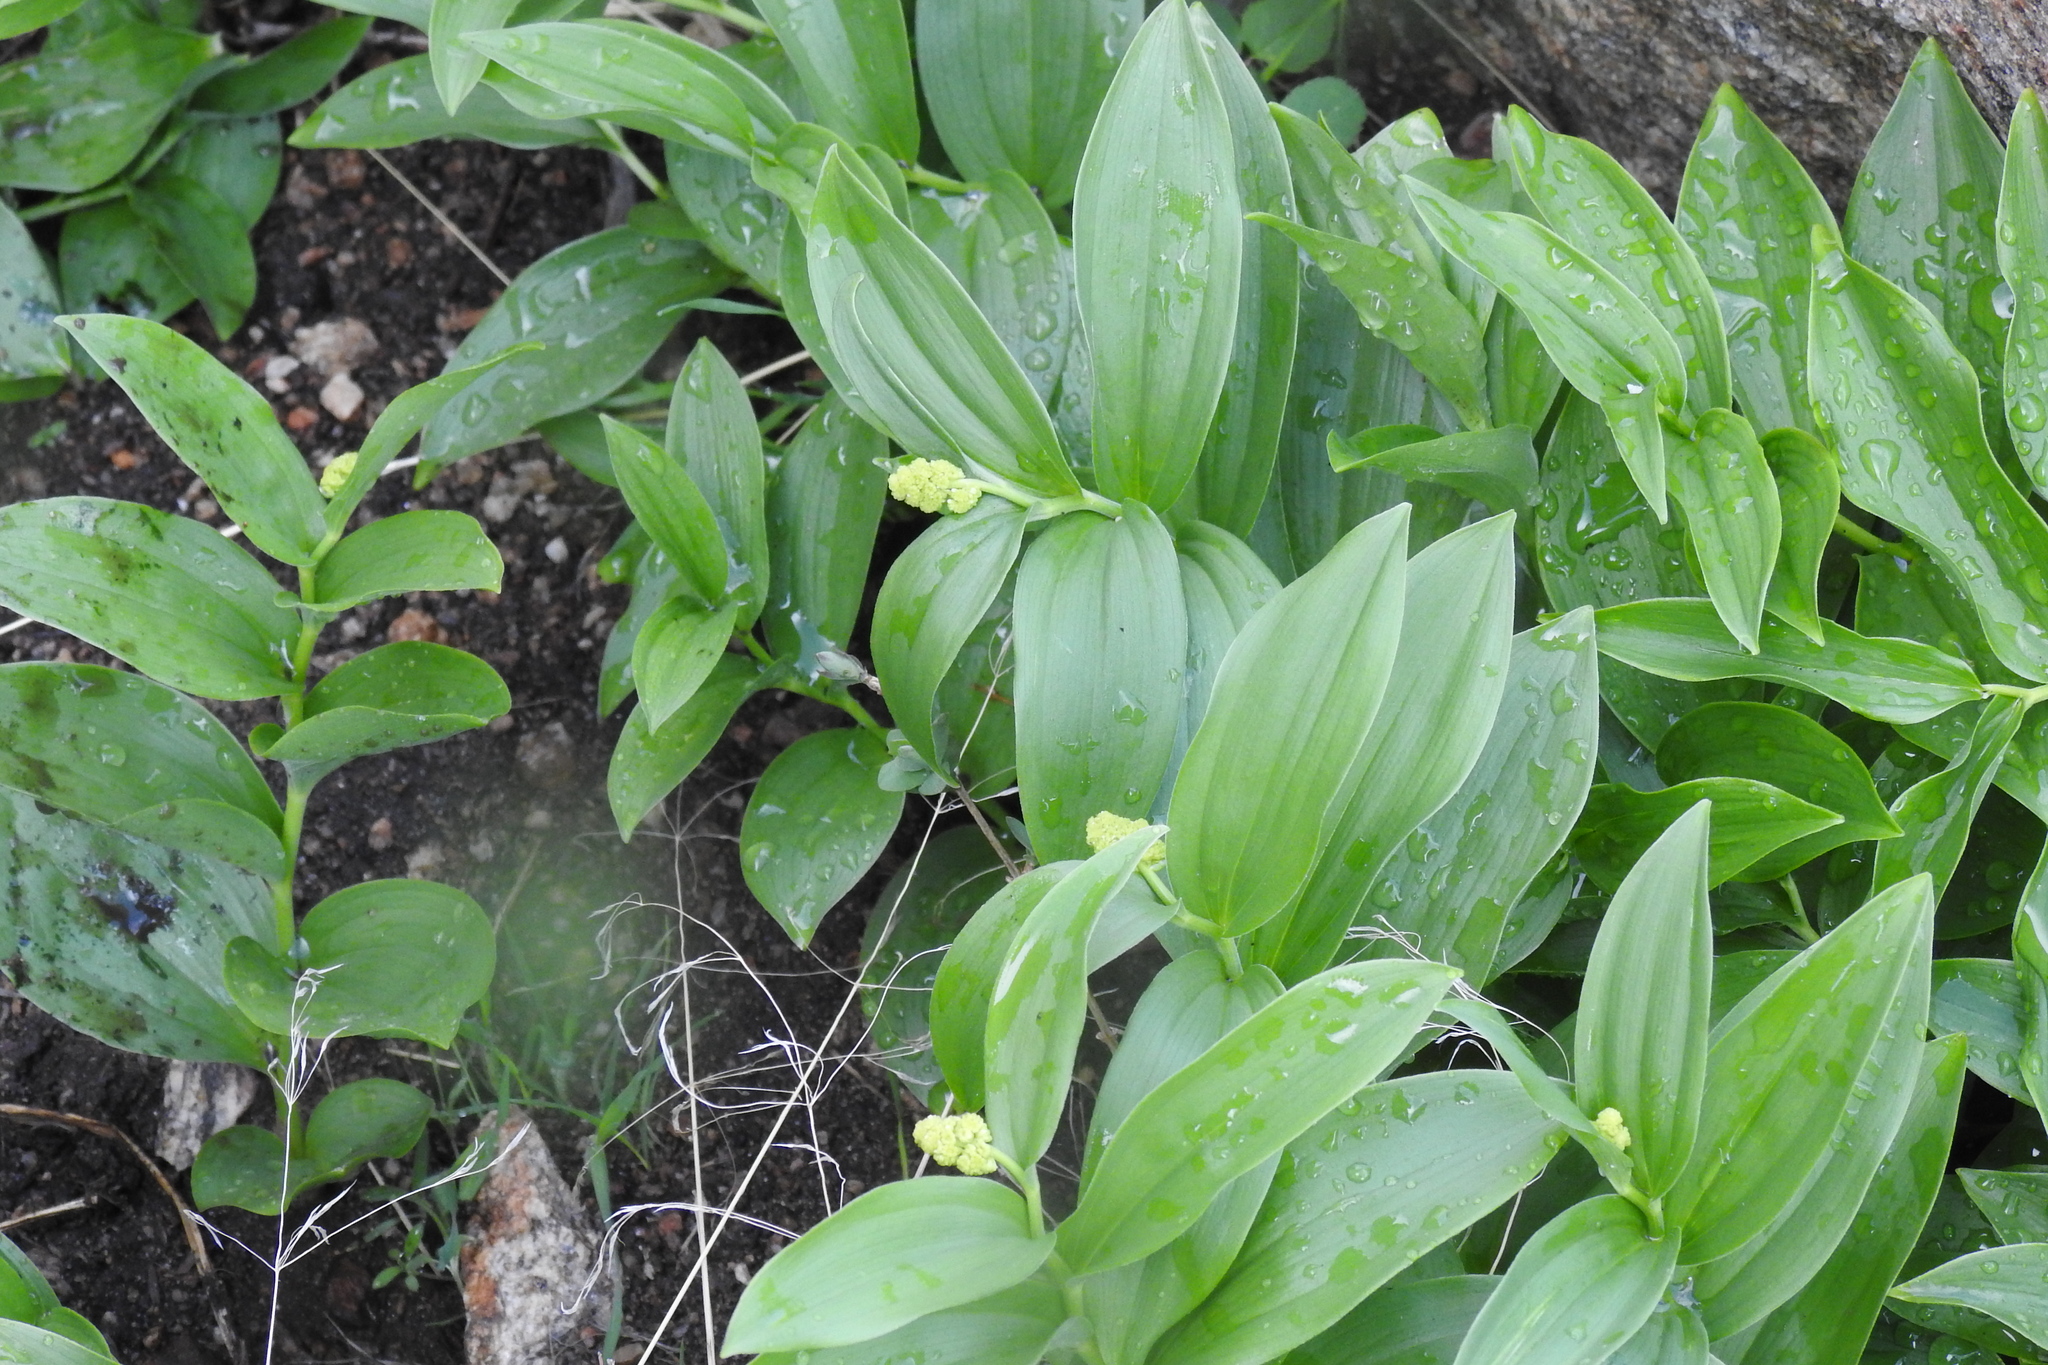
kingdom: Plantae
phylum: Tracheophyta
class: Liliopsida
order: Asparagales
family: Asparagaceae
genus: Maianthemum
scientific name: Maianthemum racemosum
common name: False spikenard
